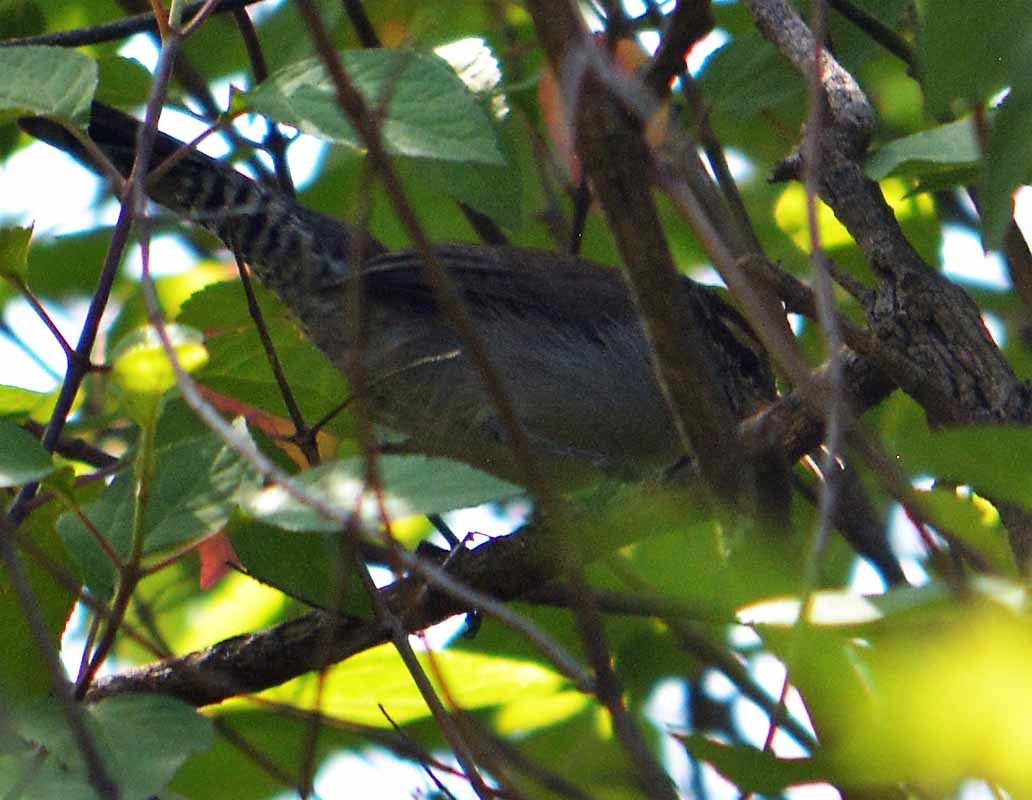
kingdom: Animalia
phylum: Chordata
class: Aves
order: Passeriformes
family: Troglodytidae
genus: Thryomanes
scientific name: Thryomanes bewickii
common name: Bewick's wren
